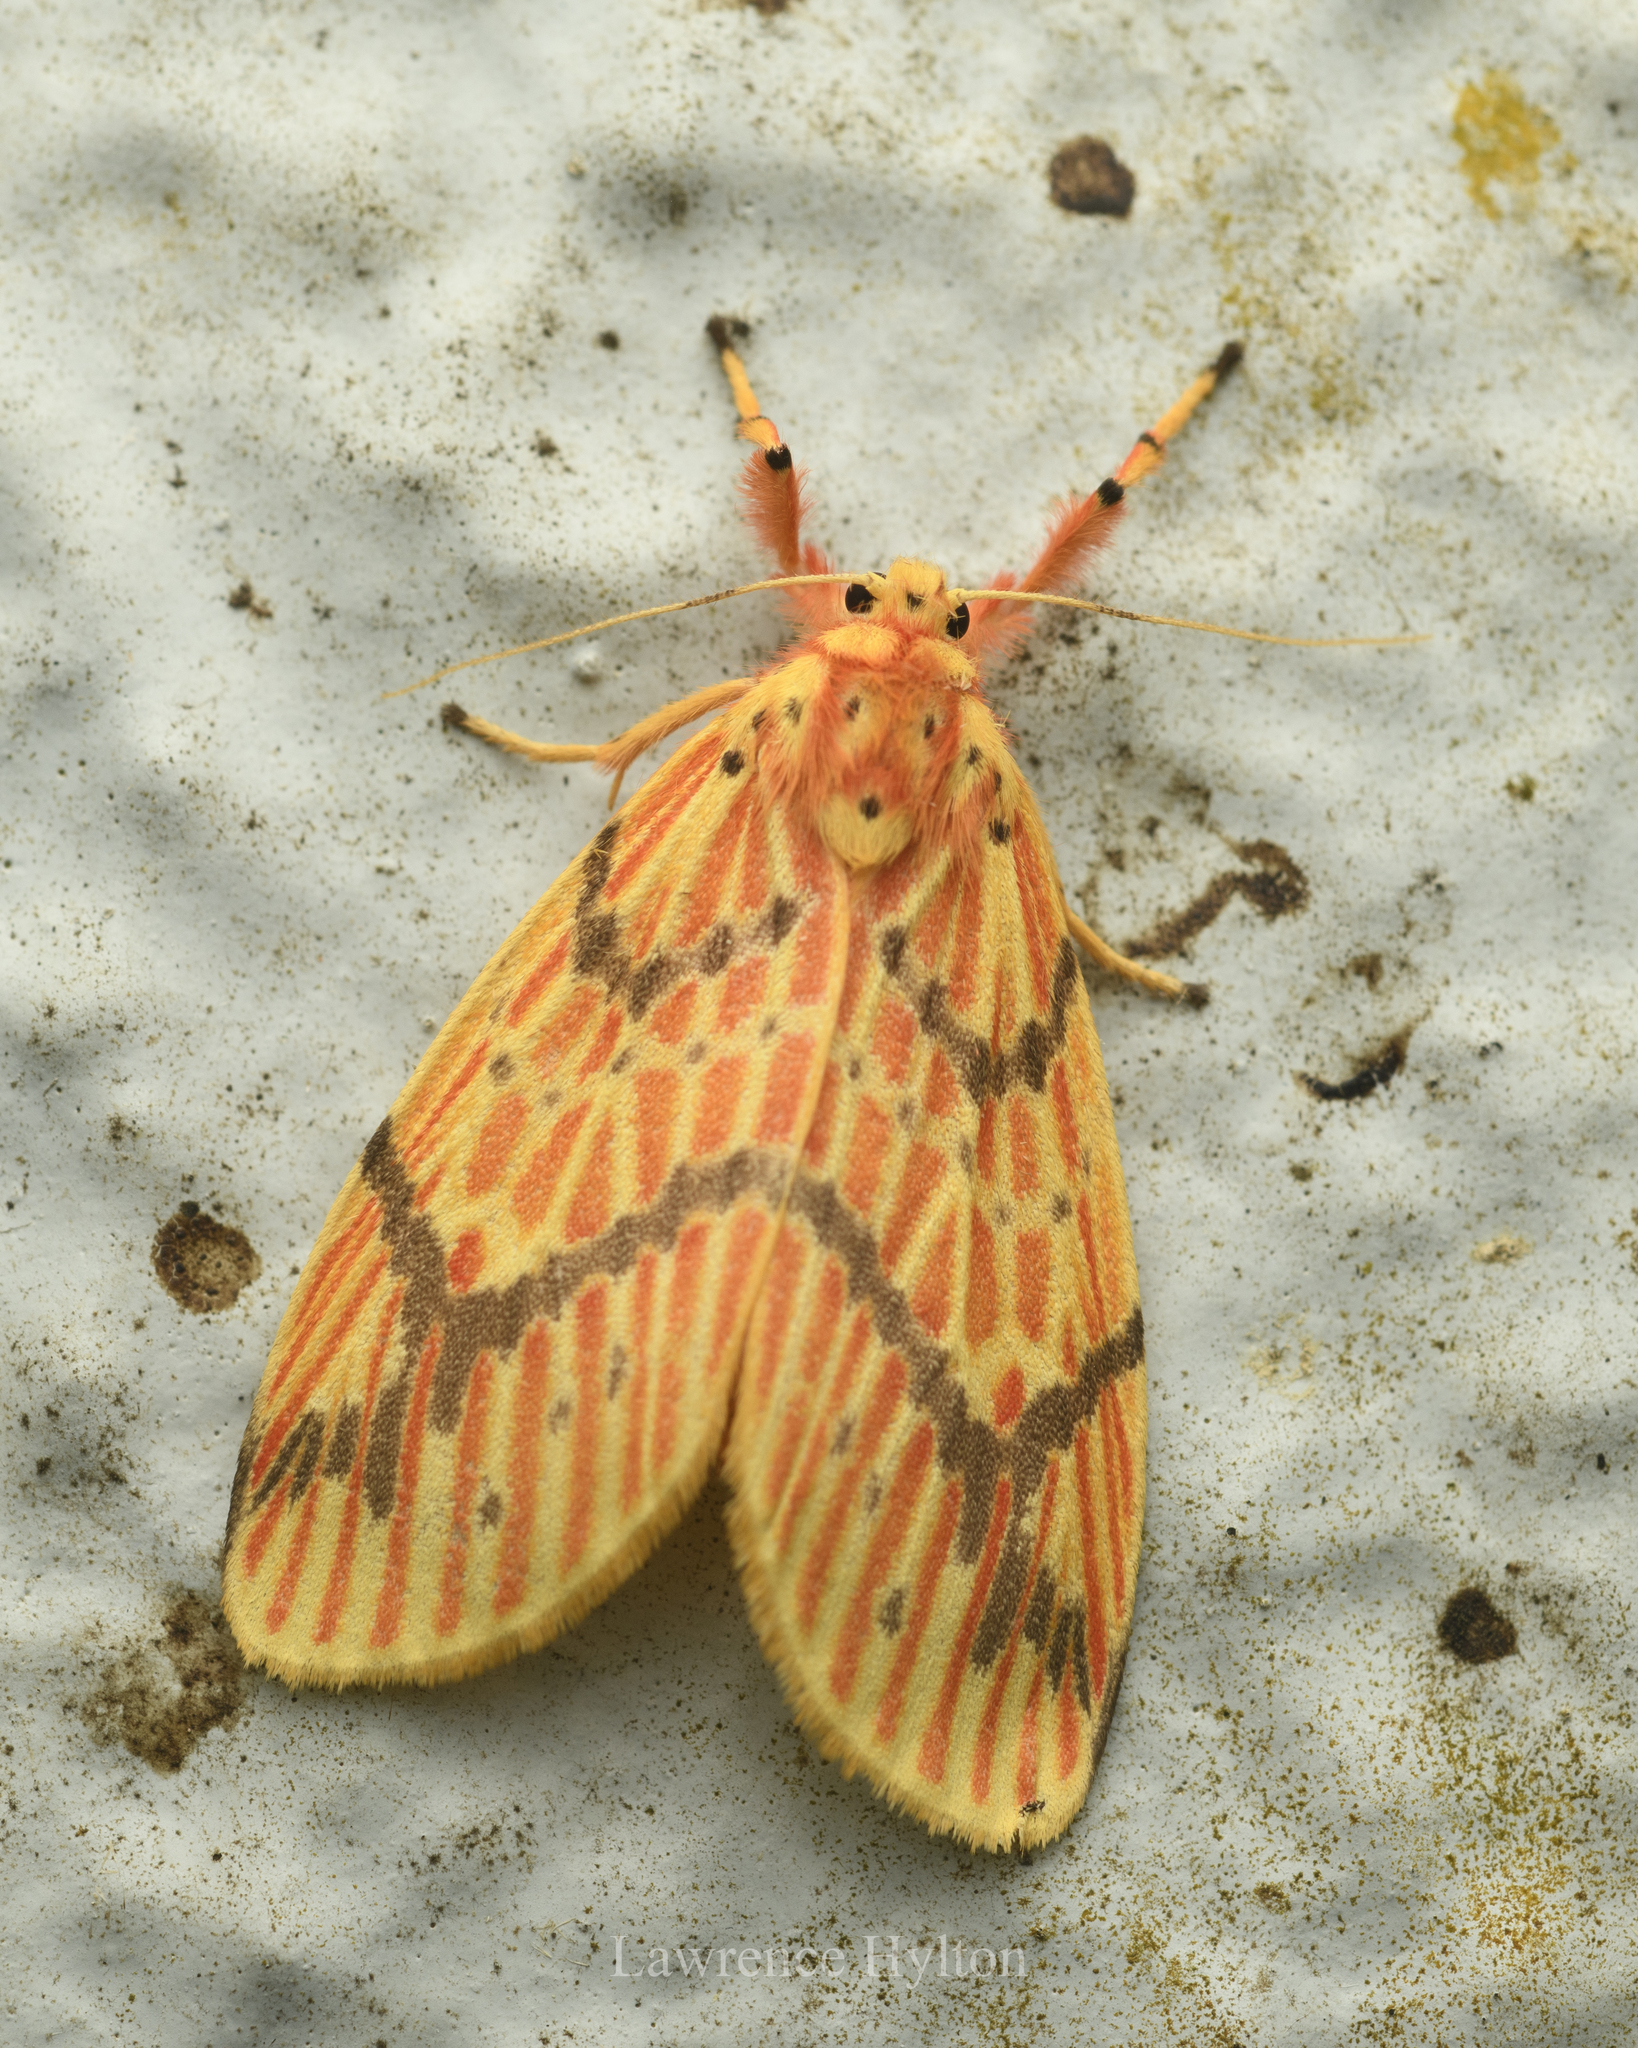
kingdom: Animalia
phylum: Arthropoda
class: Insecta
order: Lepidoptera
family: Erebidae
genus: Barsine
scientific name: Barsine striata
